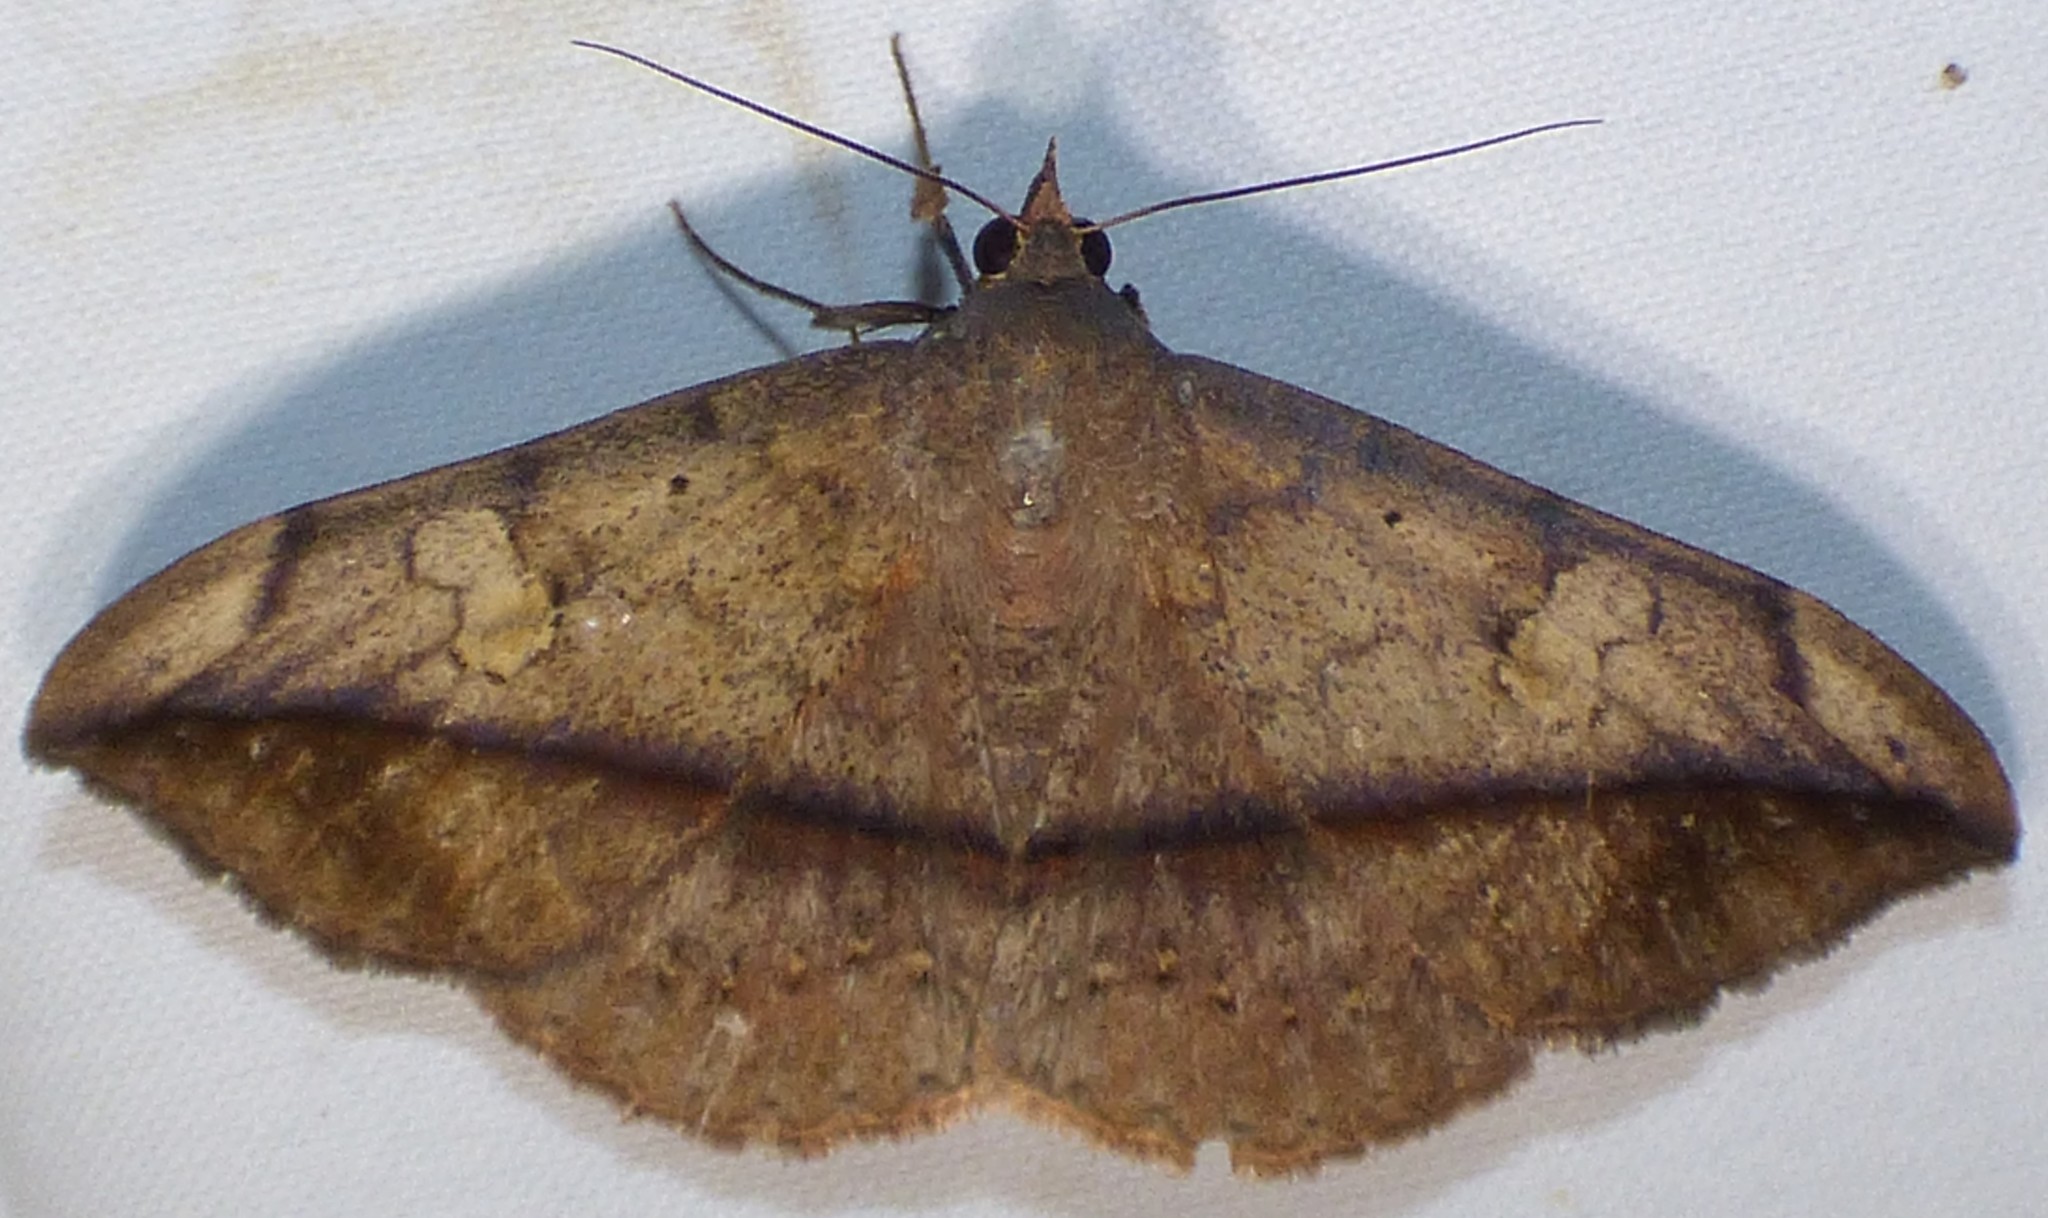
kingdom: Animalia
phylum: Arthropoda
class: Insecta
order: Lepidoptera
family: Erebidae
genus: Anticarsia
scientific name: Anticarsia gemmatalis
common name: Cutworm moth
